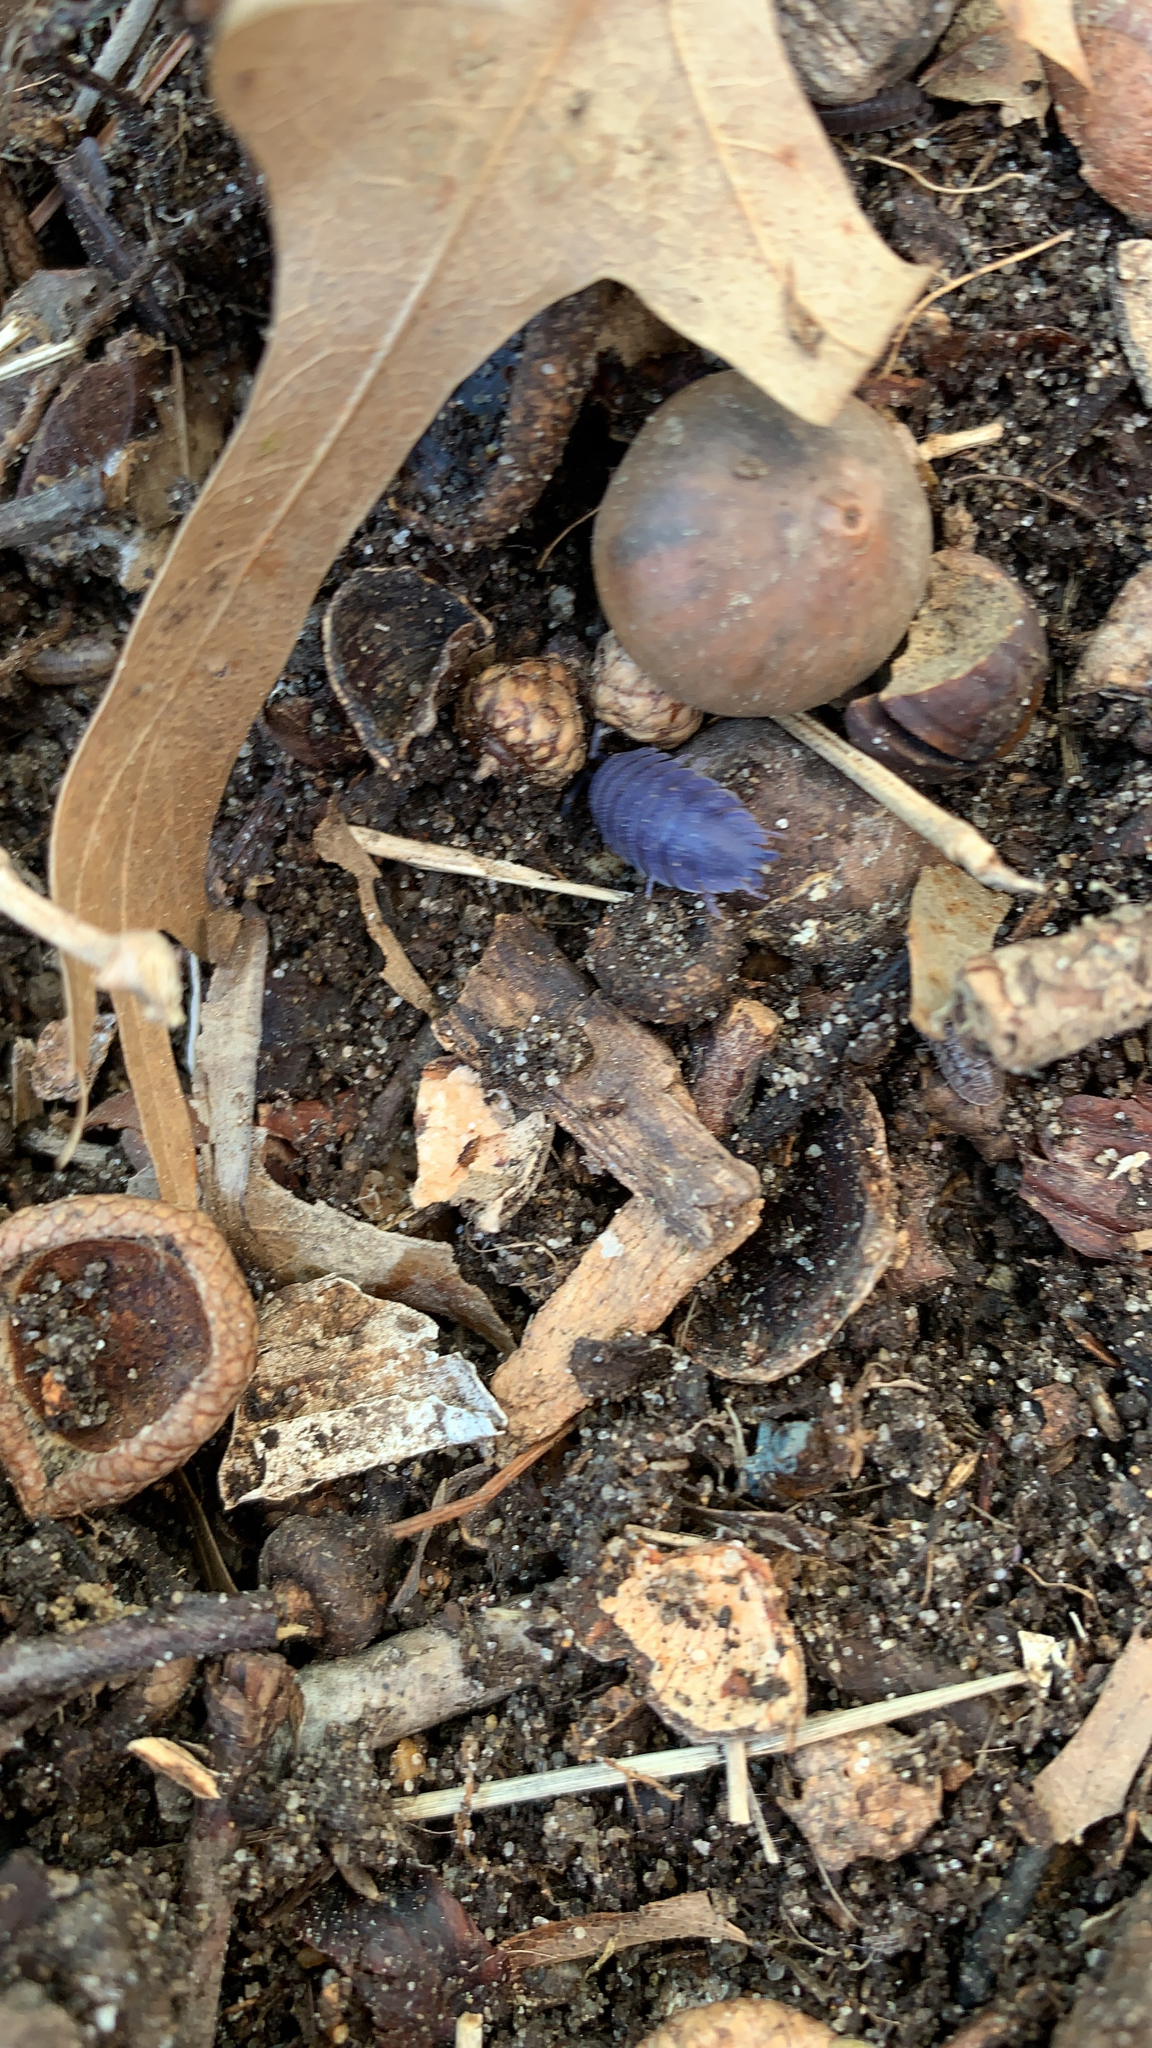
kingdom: Animalia
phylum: Arthropoda
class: Malacostraca
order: Isopoda
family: Porcellionidae
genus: Porcellio
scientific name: Porcellio scaber
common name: Common rough woodlouse
